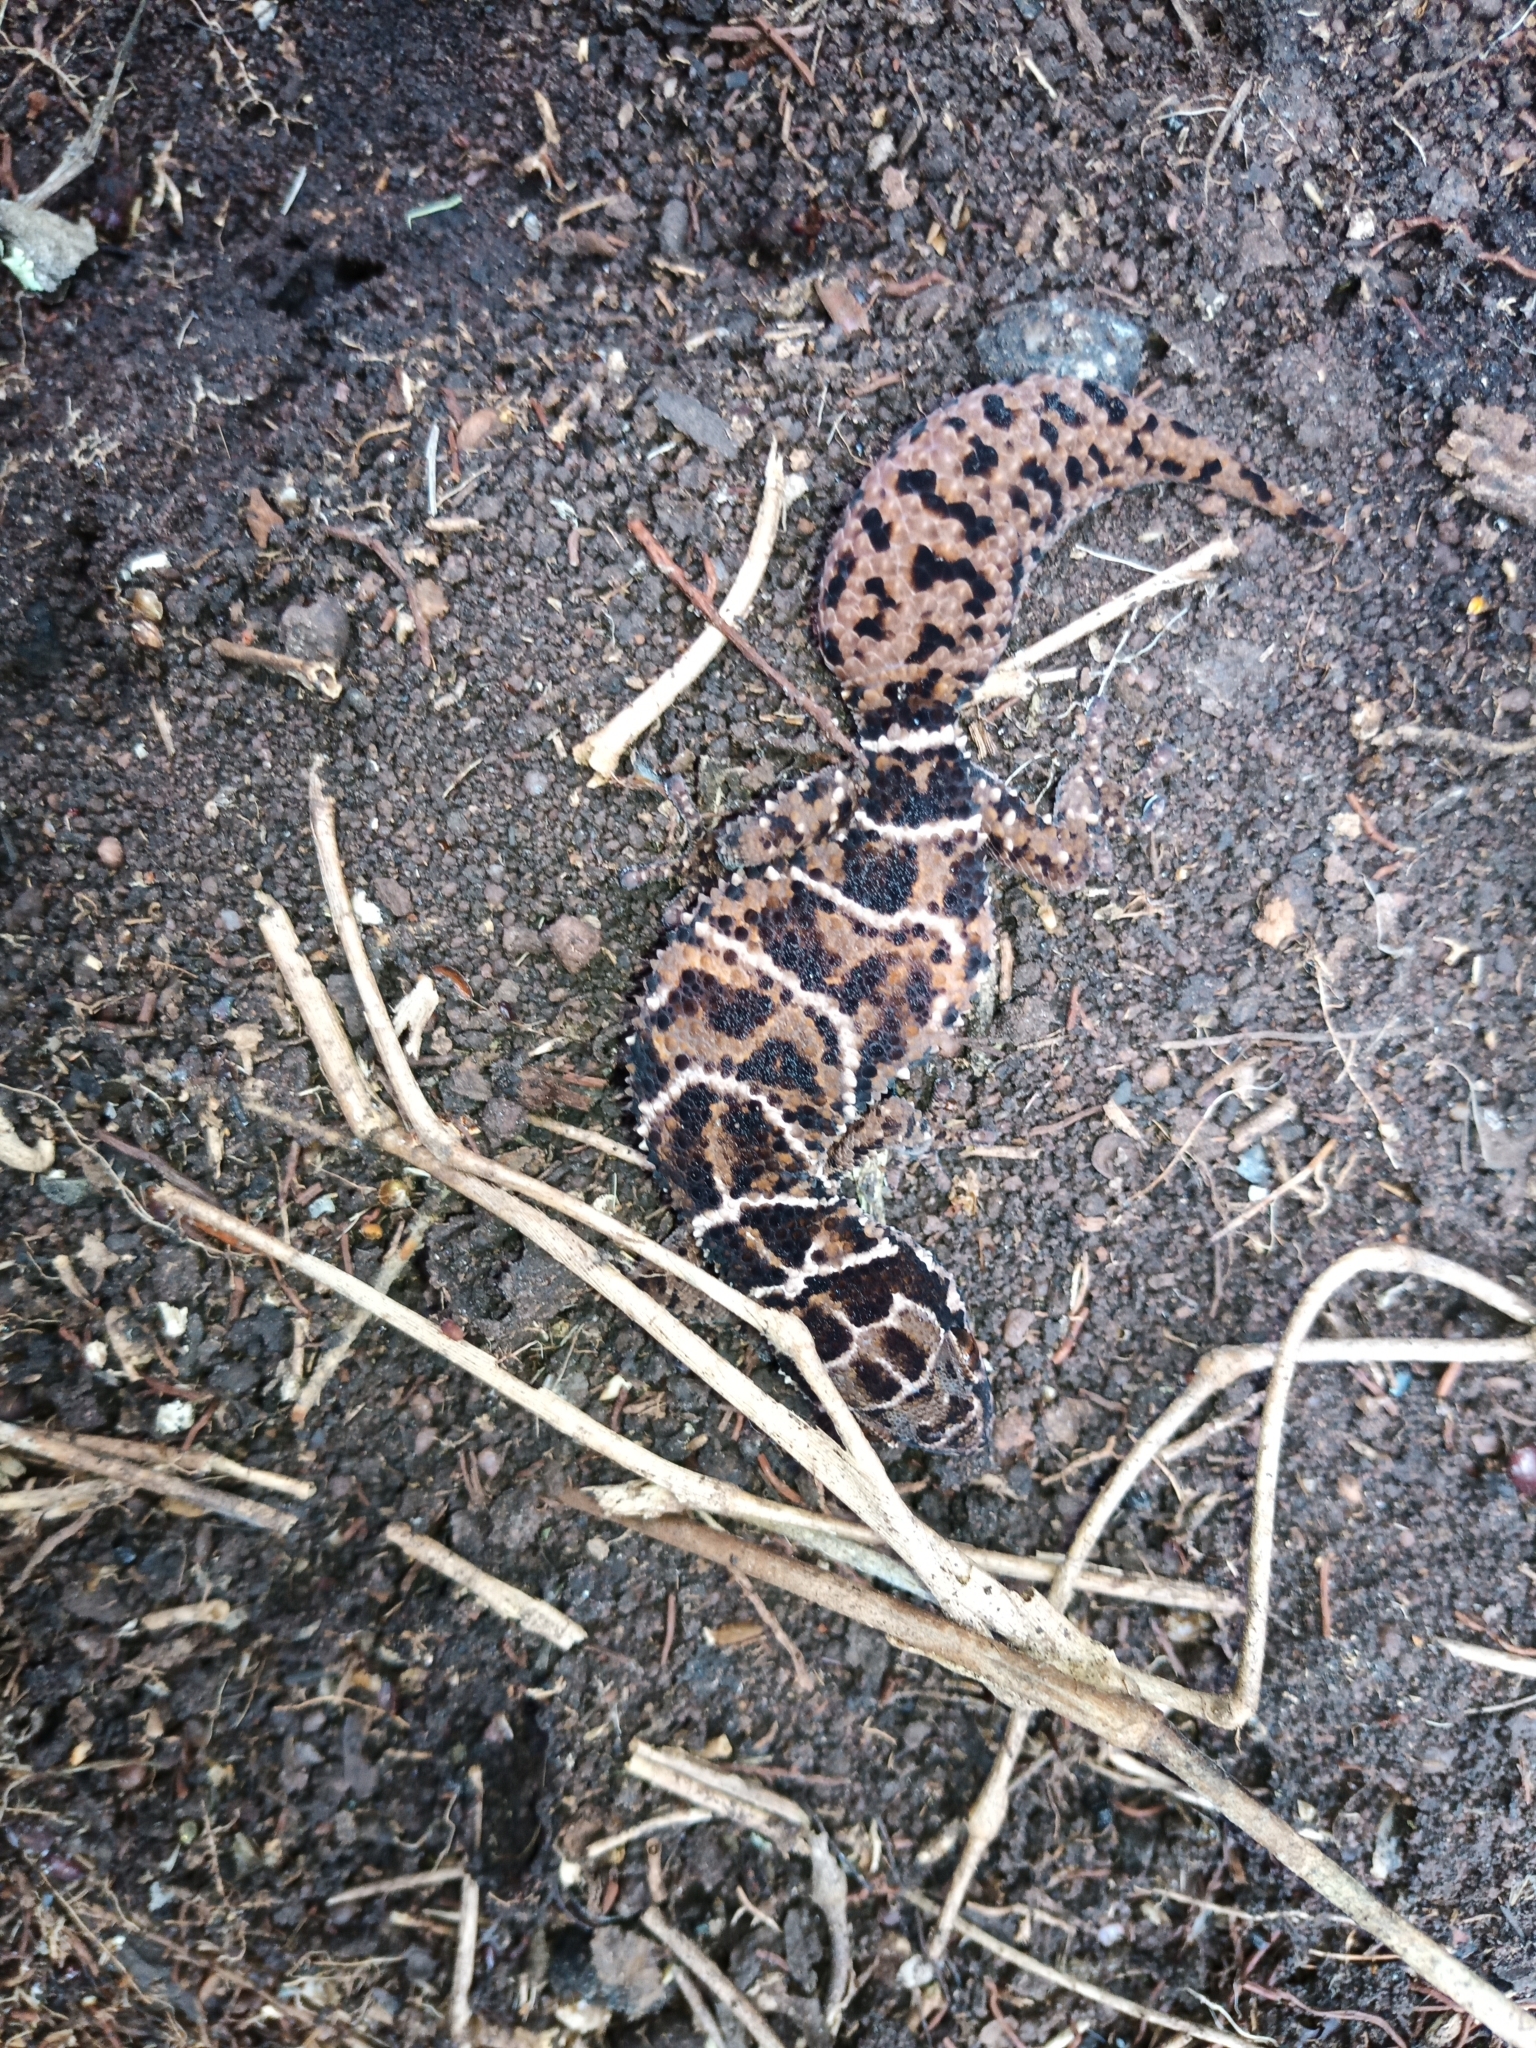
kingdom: Animalia
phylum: Chordata
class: Squamata
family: Gekkonidae
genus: Pachydactylus
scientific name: Pachydactylus vansoni
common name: Van son's gecko
